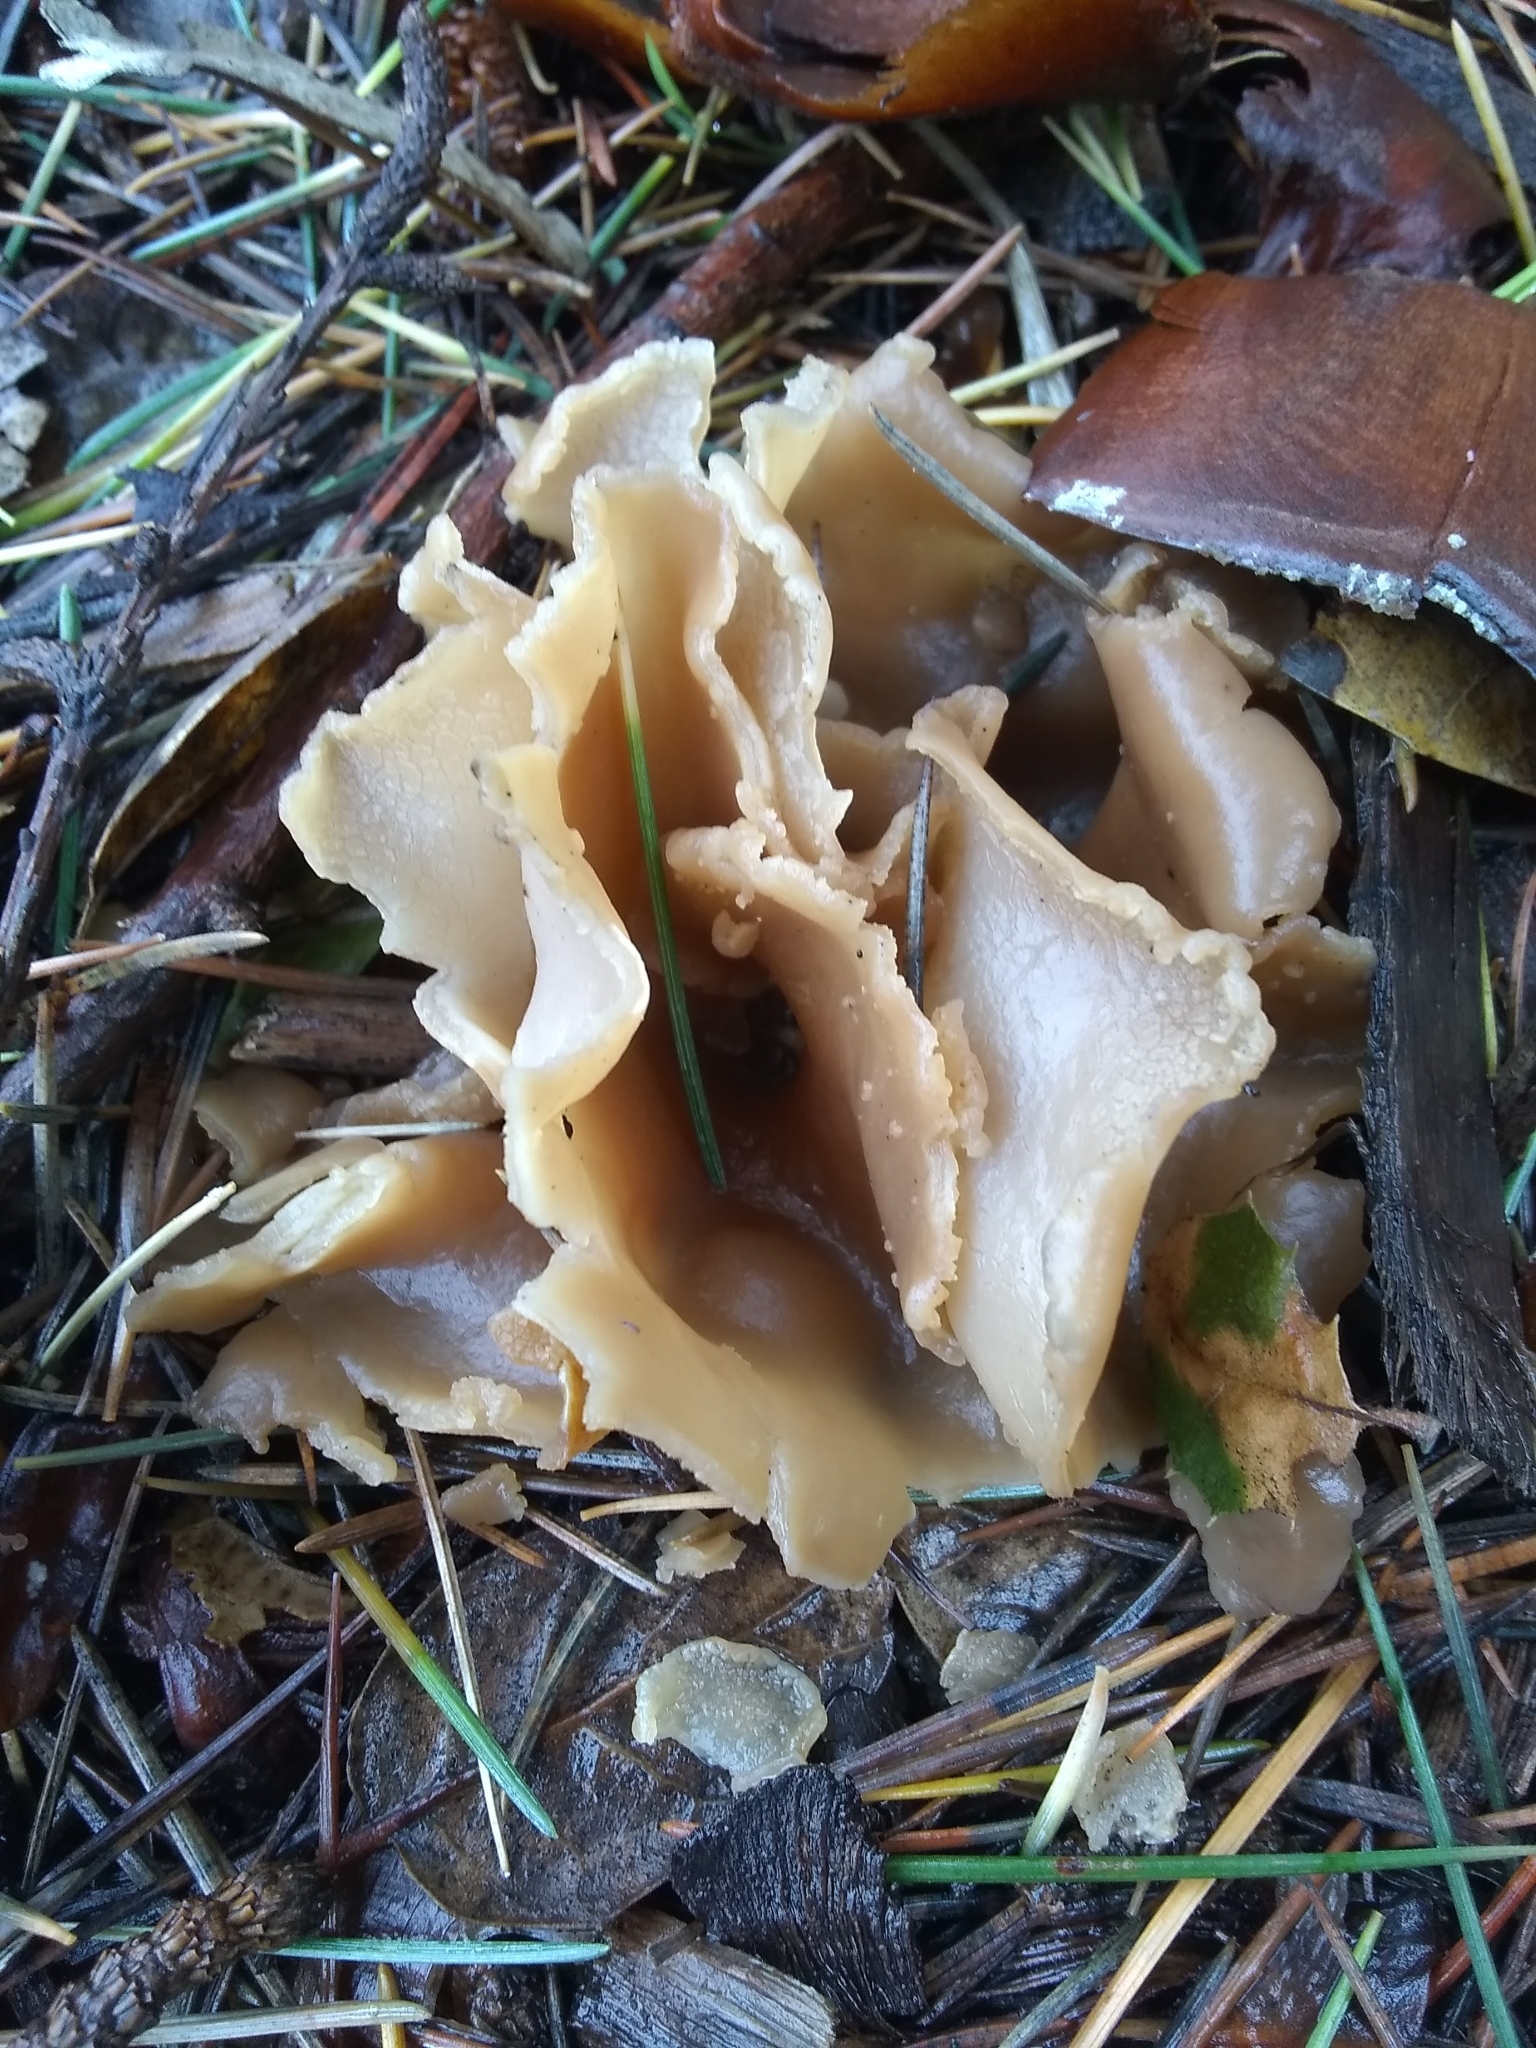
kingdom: Fungi
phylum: Ascomycota
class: Pezizomycetes
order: Pezizales
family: Pezizaceae
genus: Peziza
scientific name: Peziza varia
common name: Layered cup
